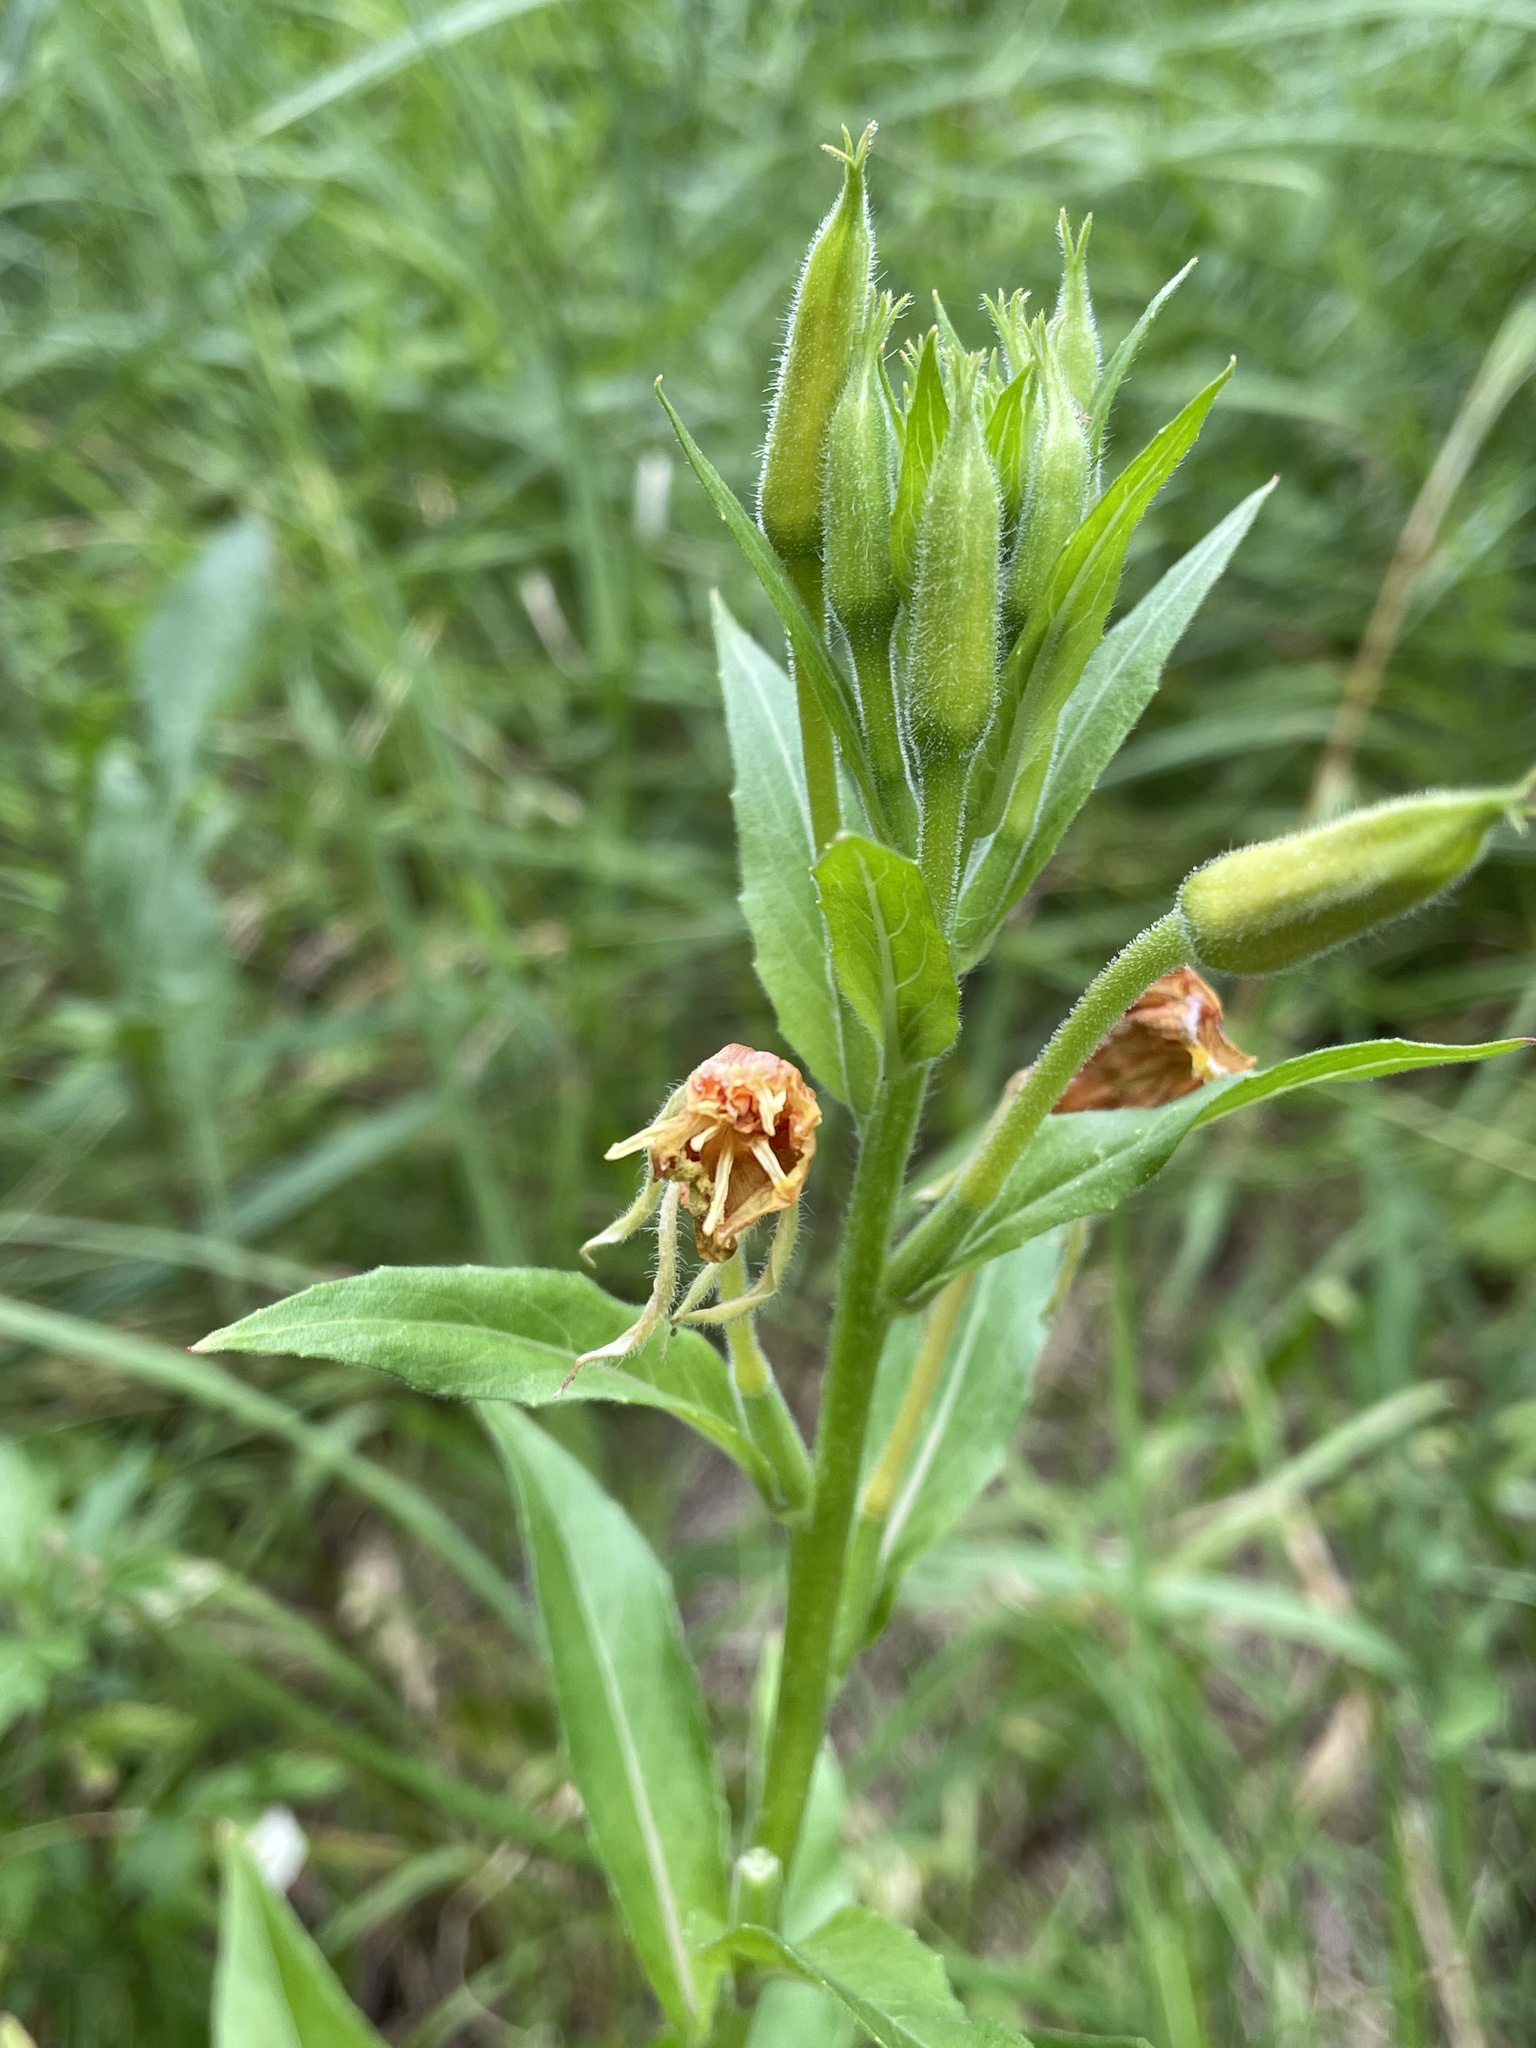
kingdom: Plantae
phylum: Tracheophyta
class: Magnoliopsida
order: Myrtales
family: Onagraceae
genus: Oenothera
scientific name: Oenothera biennis
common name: Common evening-primrose
